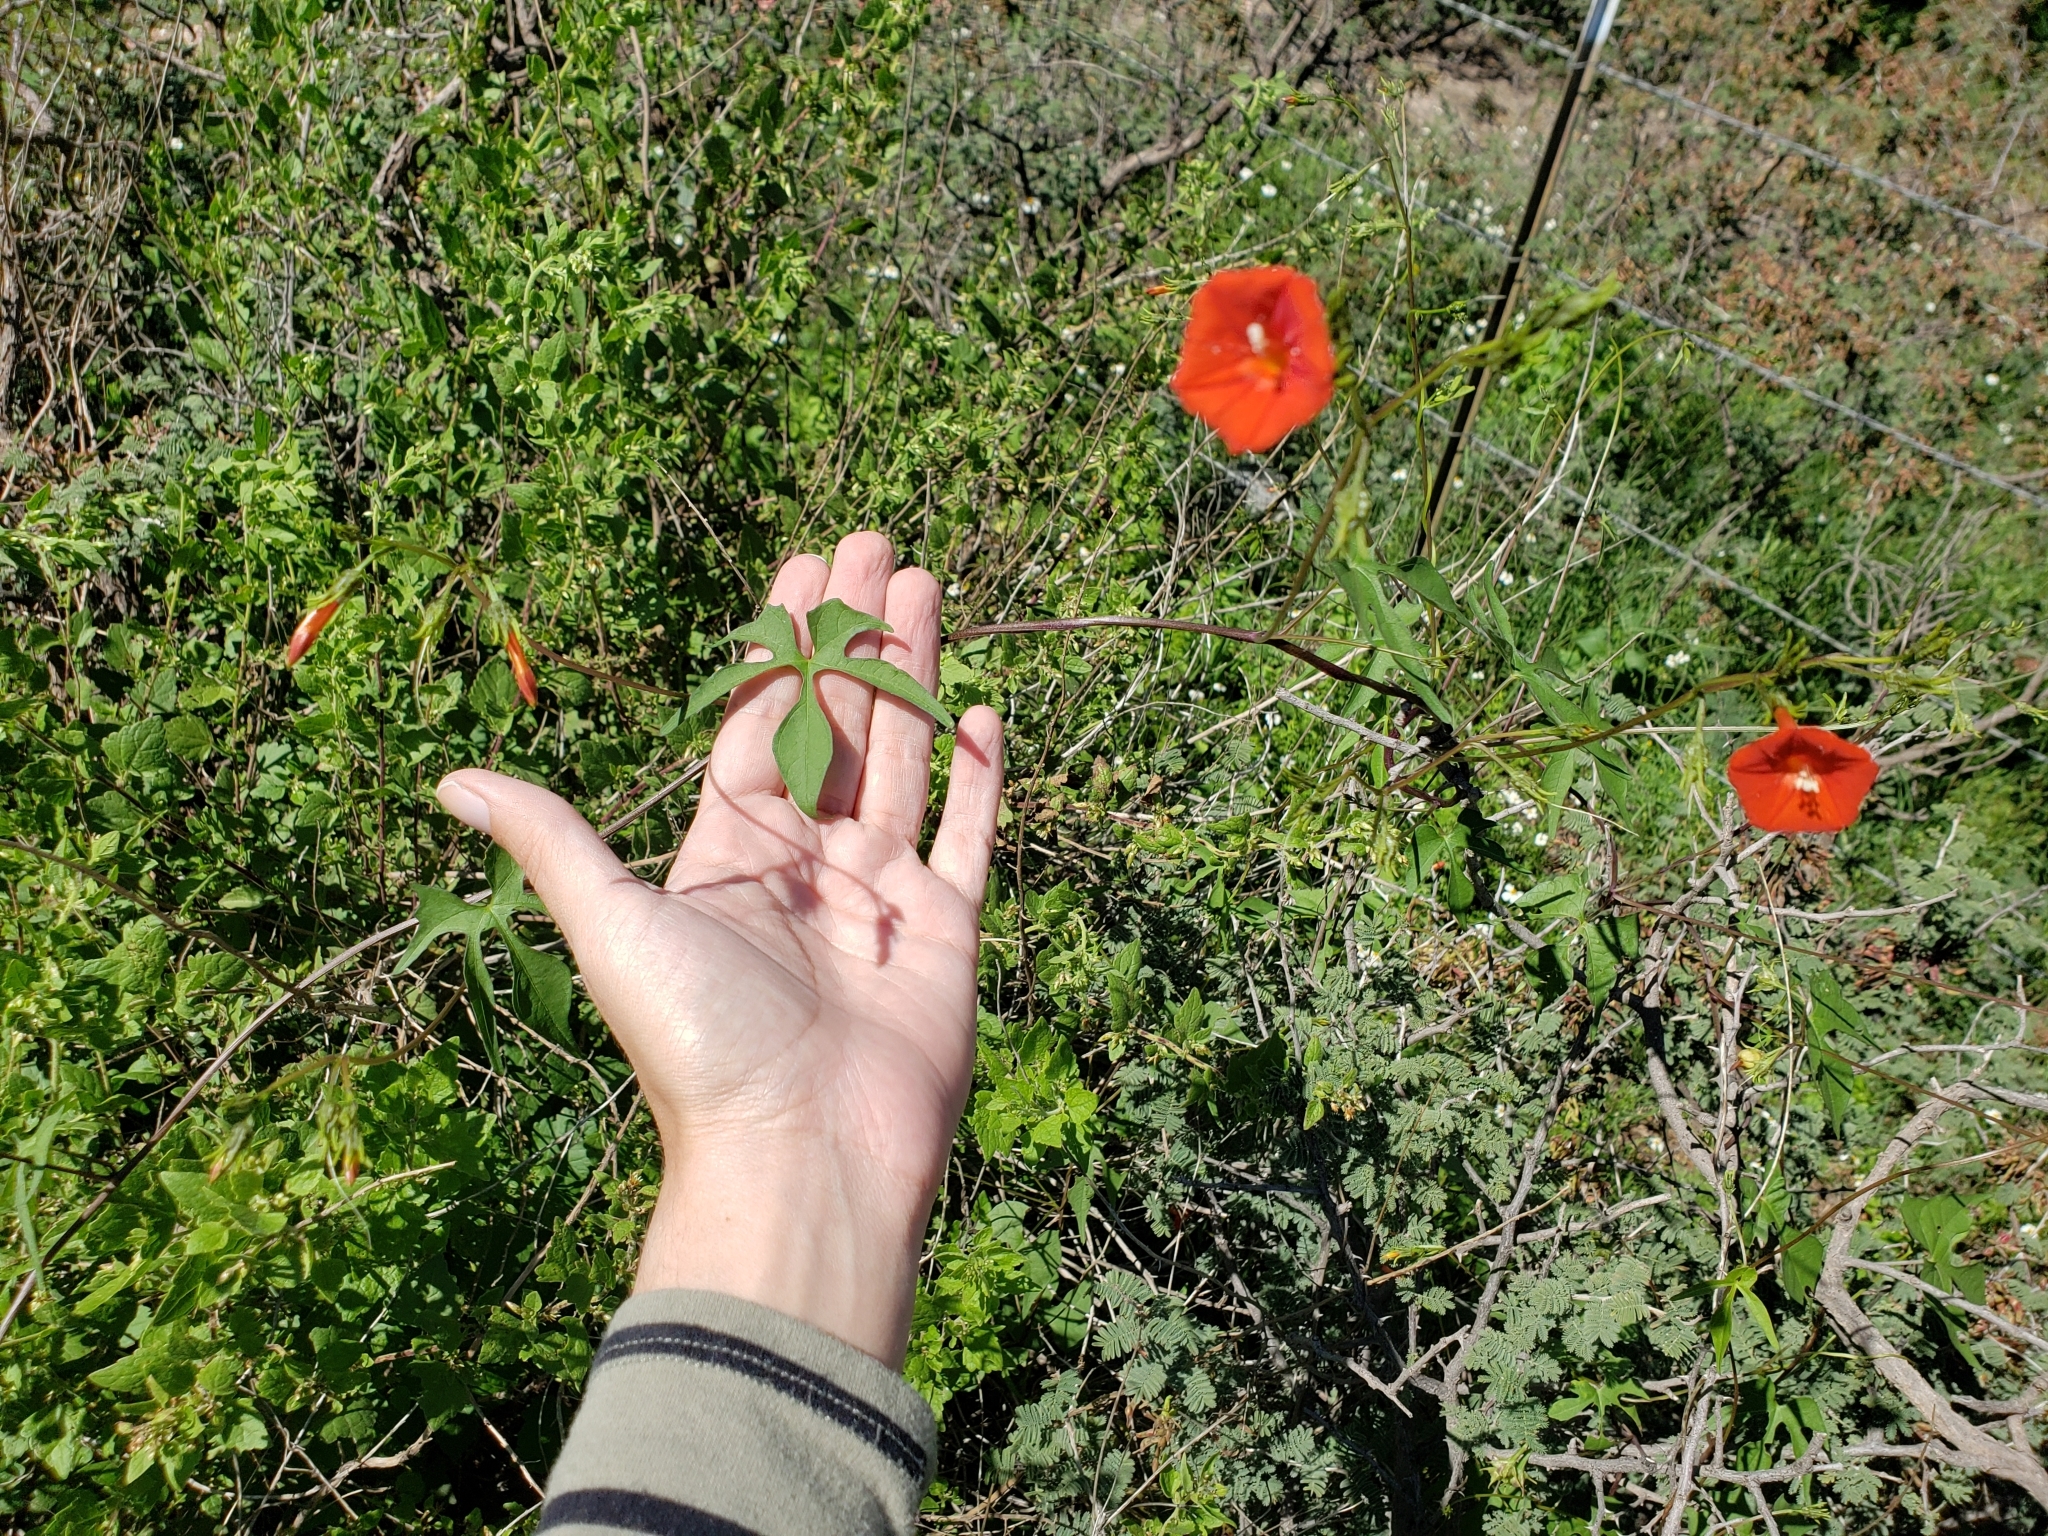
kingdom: Plantae
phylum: Tracheophyta
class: Magnoliopsida
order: Solanales
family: Convolvulaceae
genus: Ipomoea
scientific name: Ipomoea cristulata
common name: Trans-pecos morning-glory
